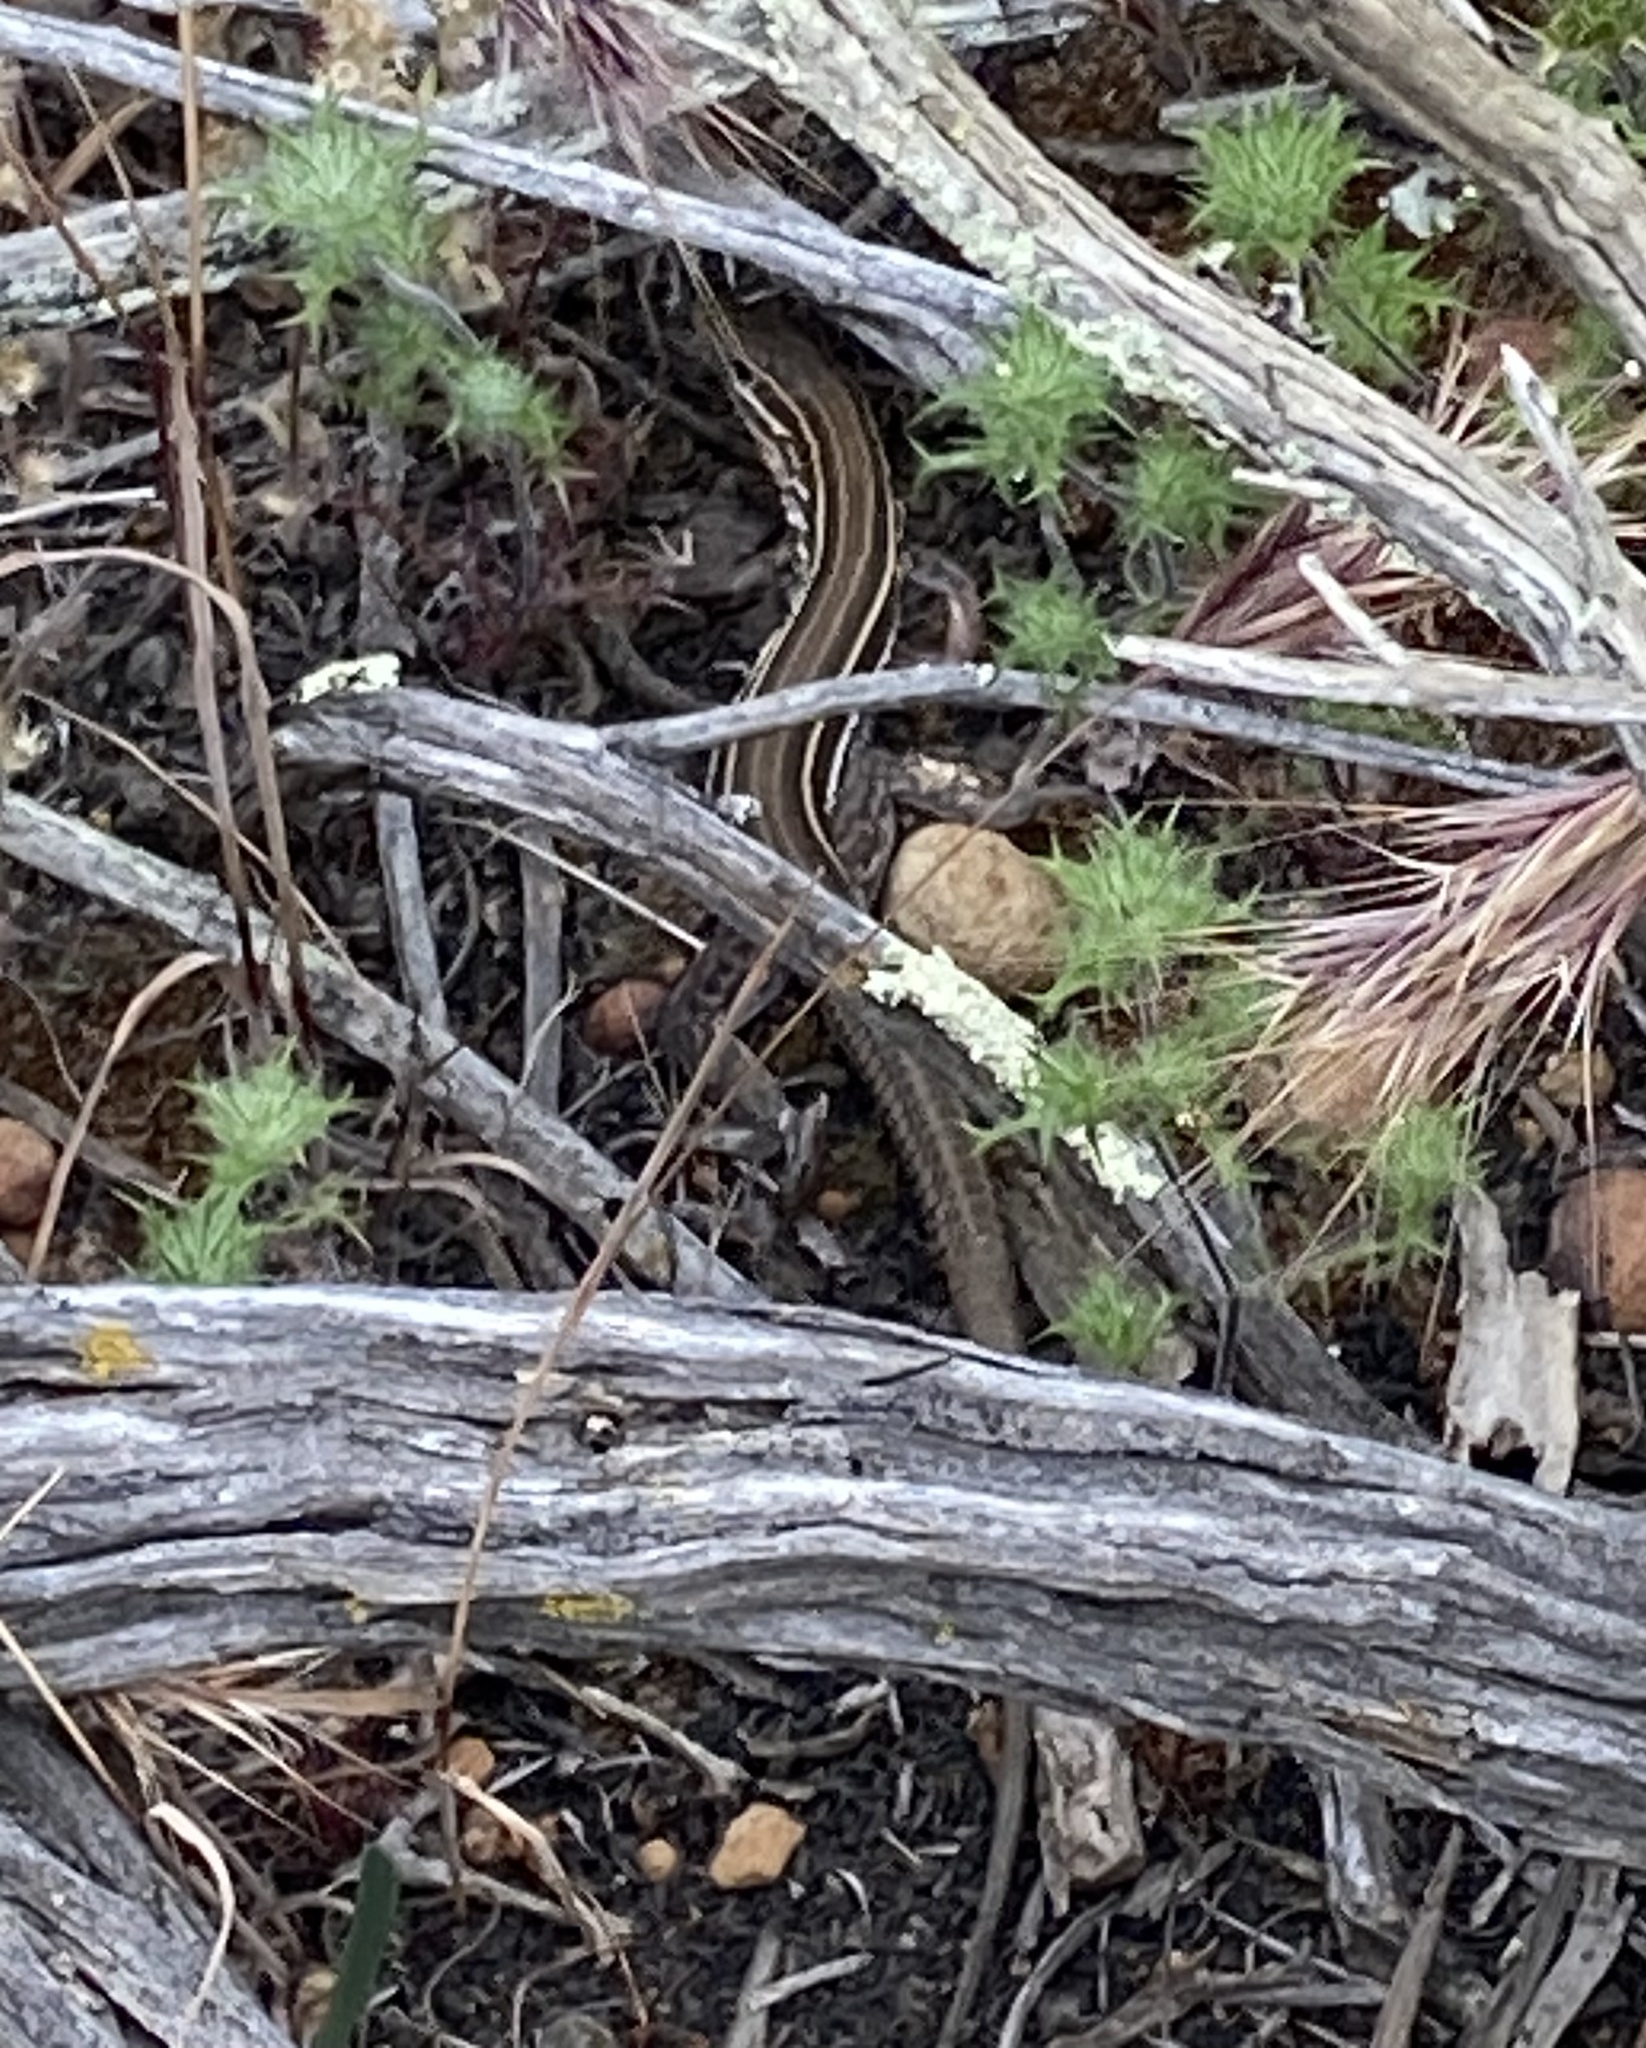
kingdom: Animalia
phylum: Chordata
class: Squamata
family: Teiidae
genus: Aspidoscelis
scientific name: Aspidoscelis hyperythrus
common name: Orange-throated race-runner
